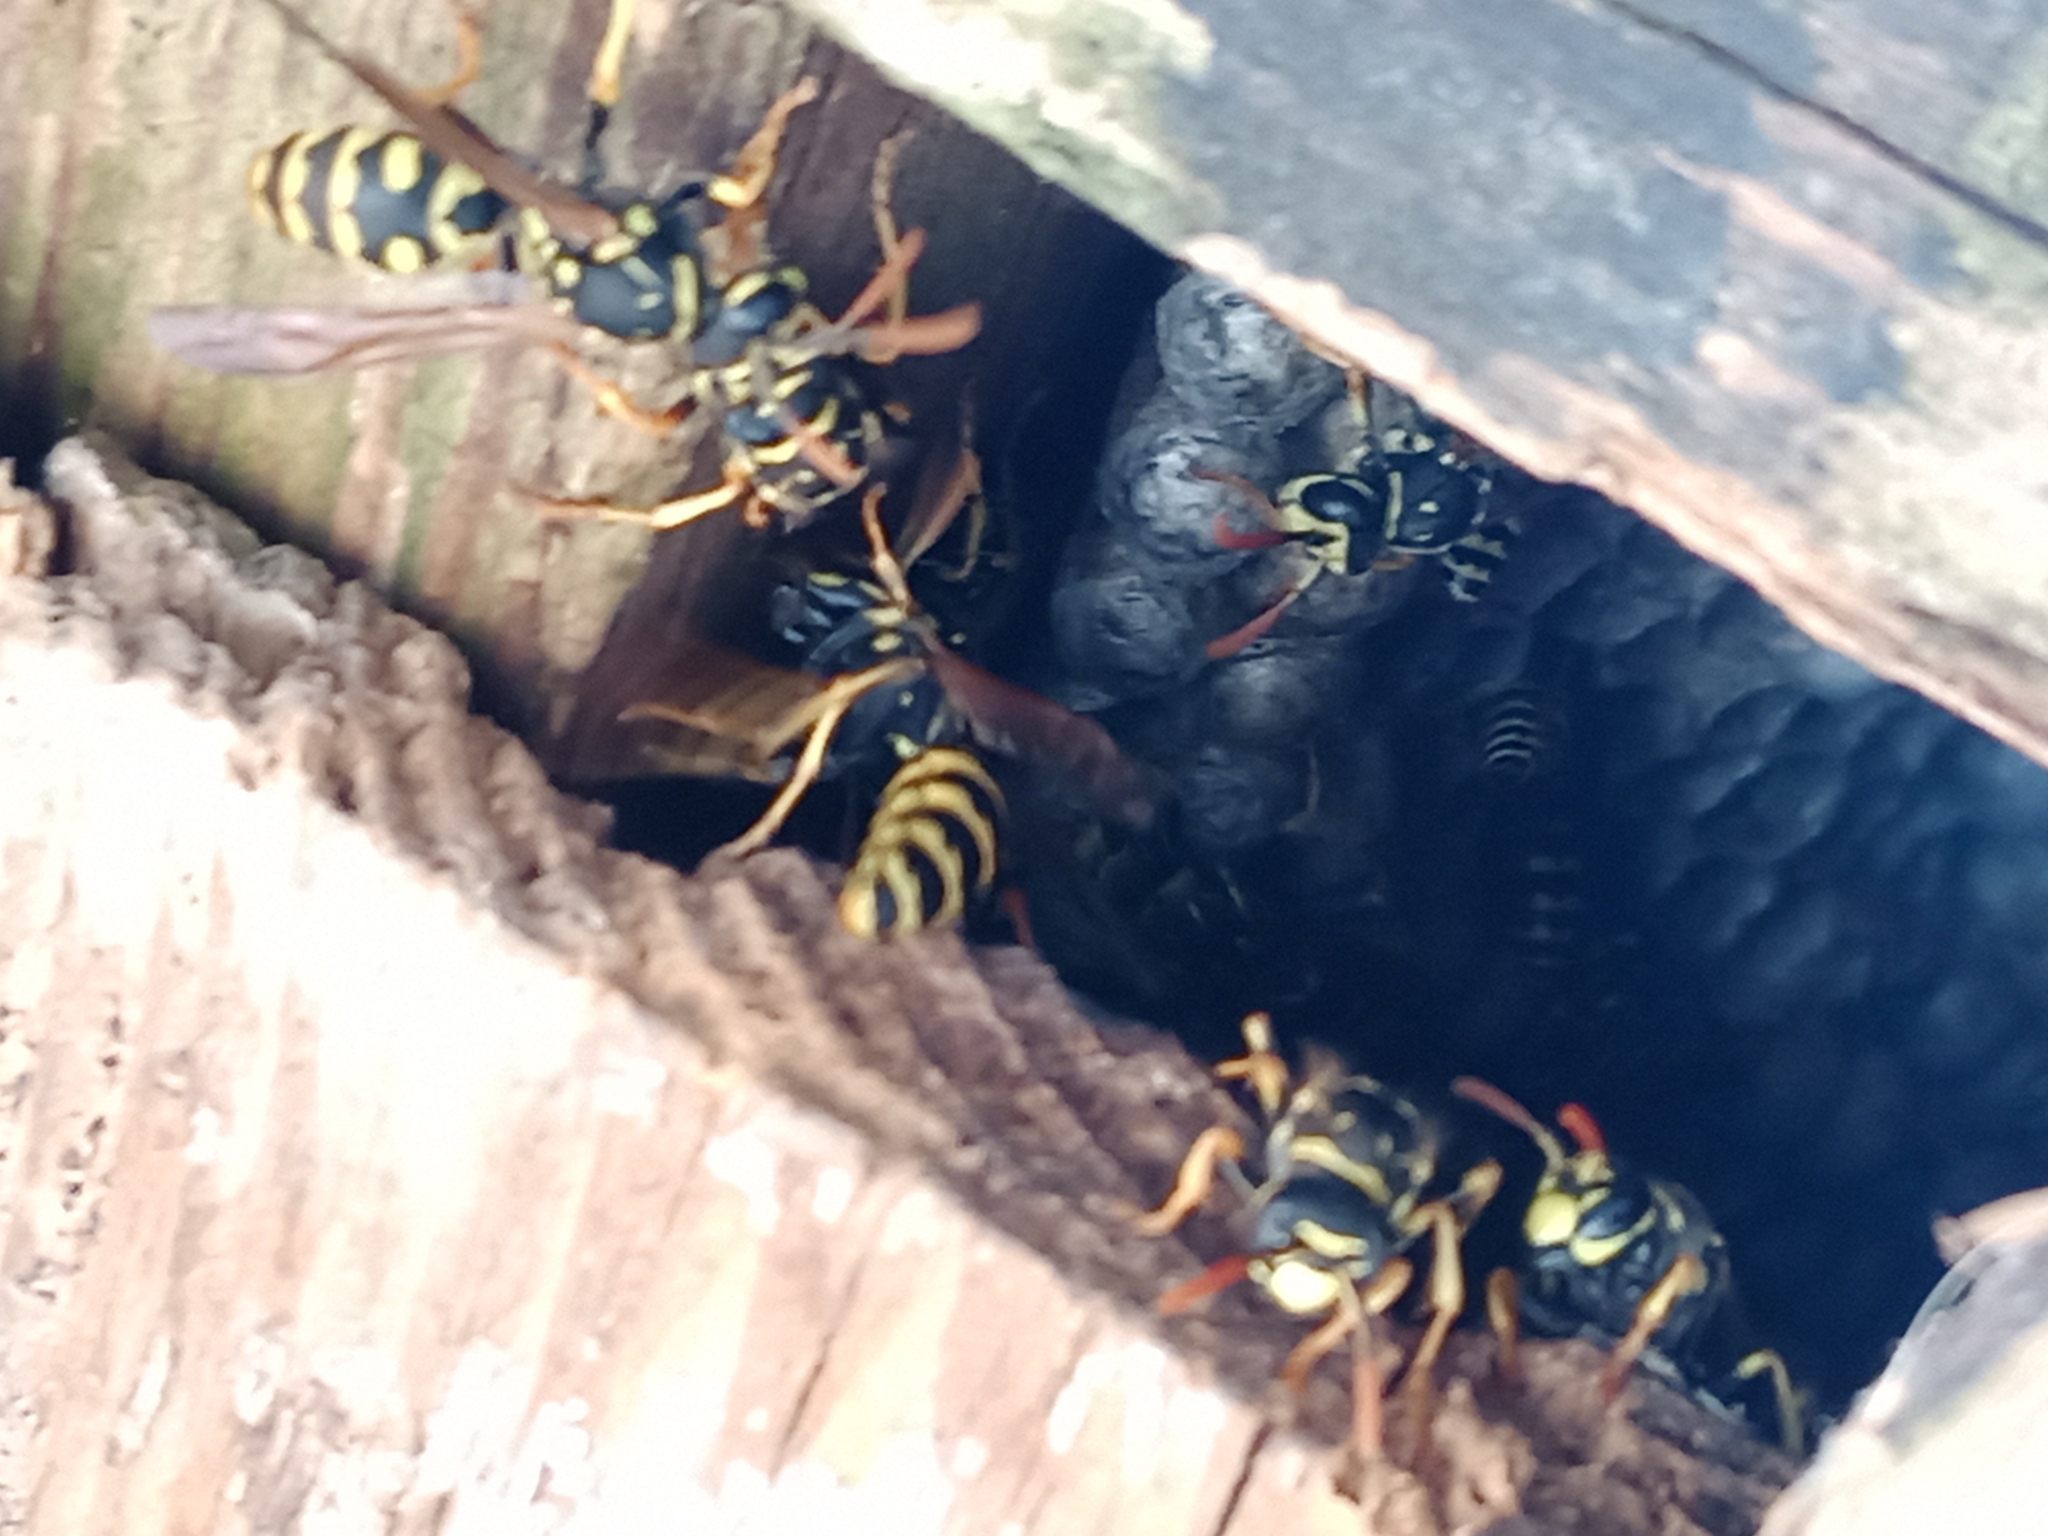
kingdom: Animalia
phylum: Arthropoda
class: Insecta
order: Hymenoptera
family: Eumenidae
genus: Polistes
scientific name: Polistes dominula
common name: Paper wasp
